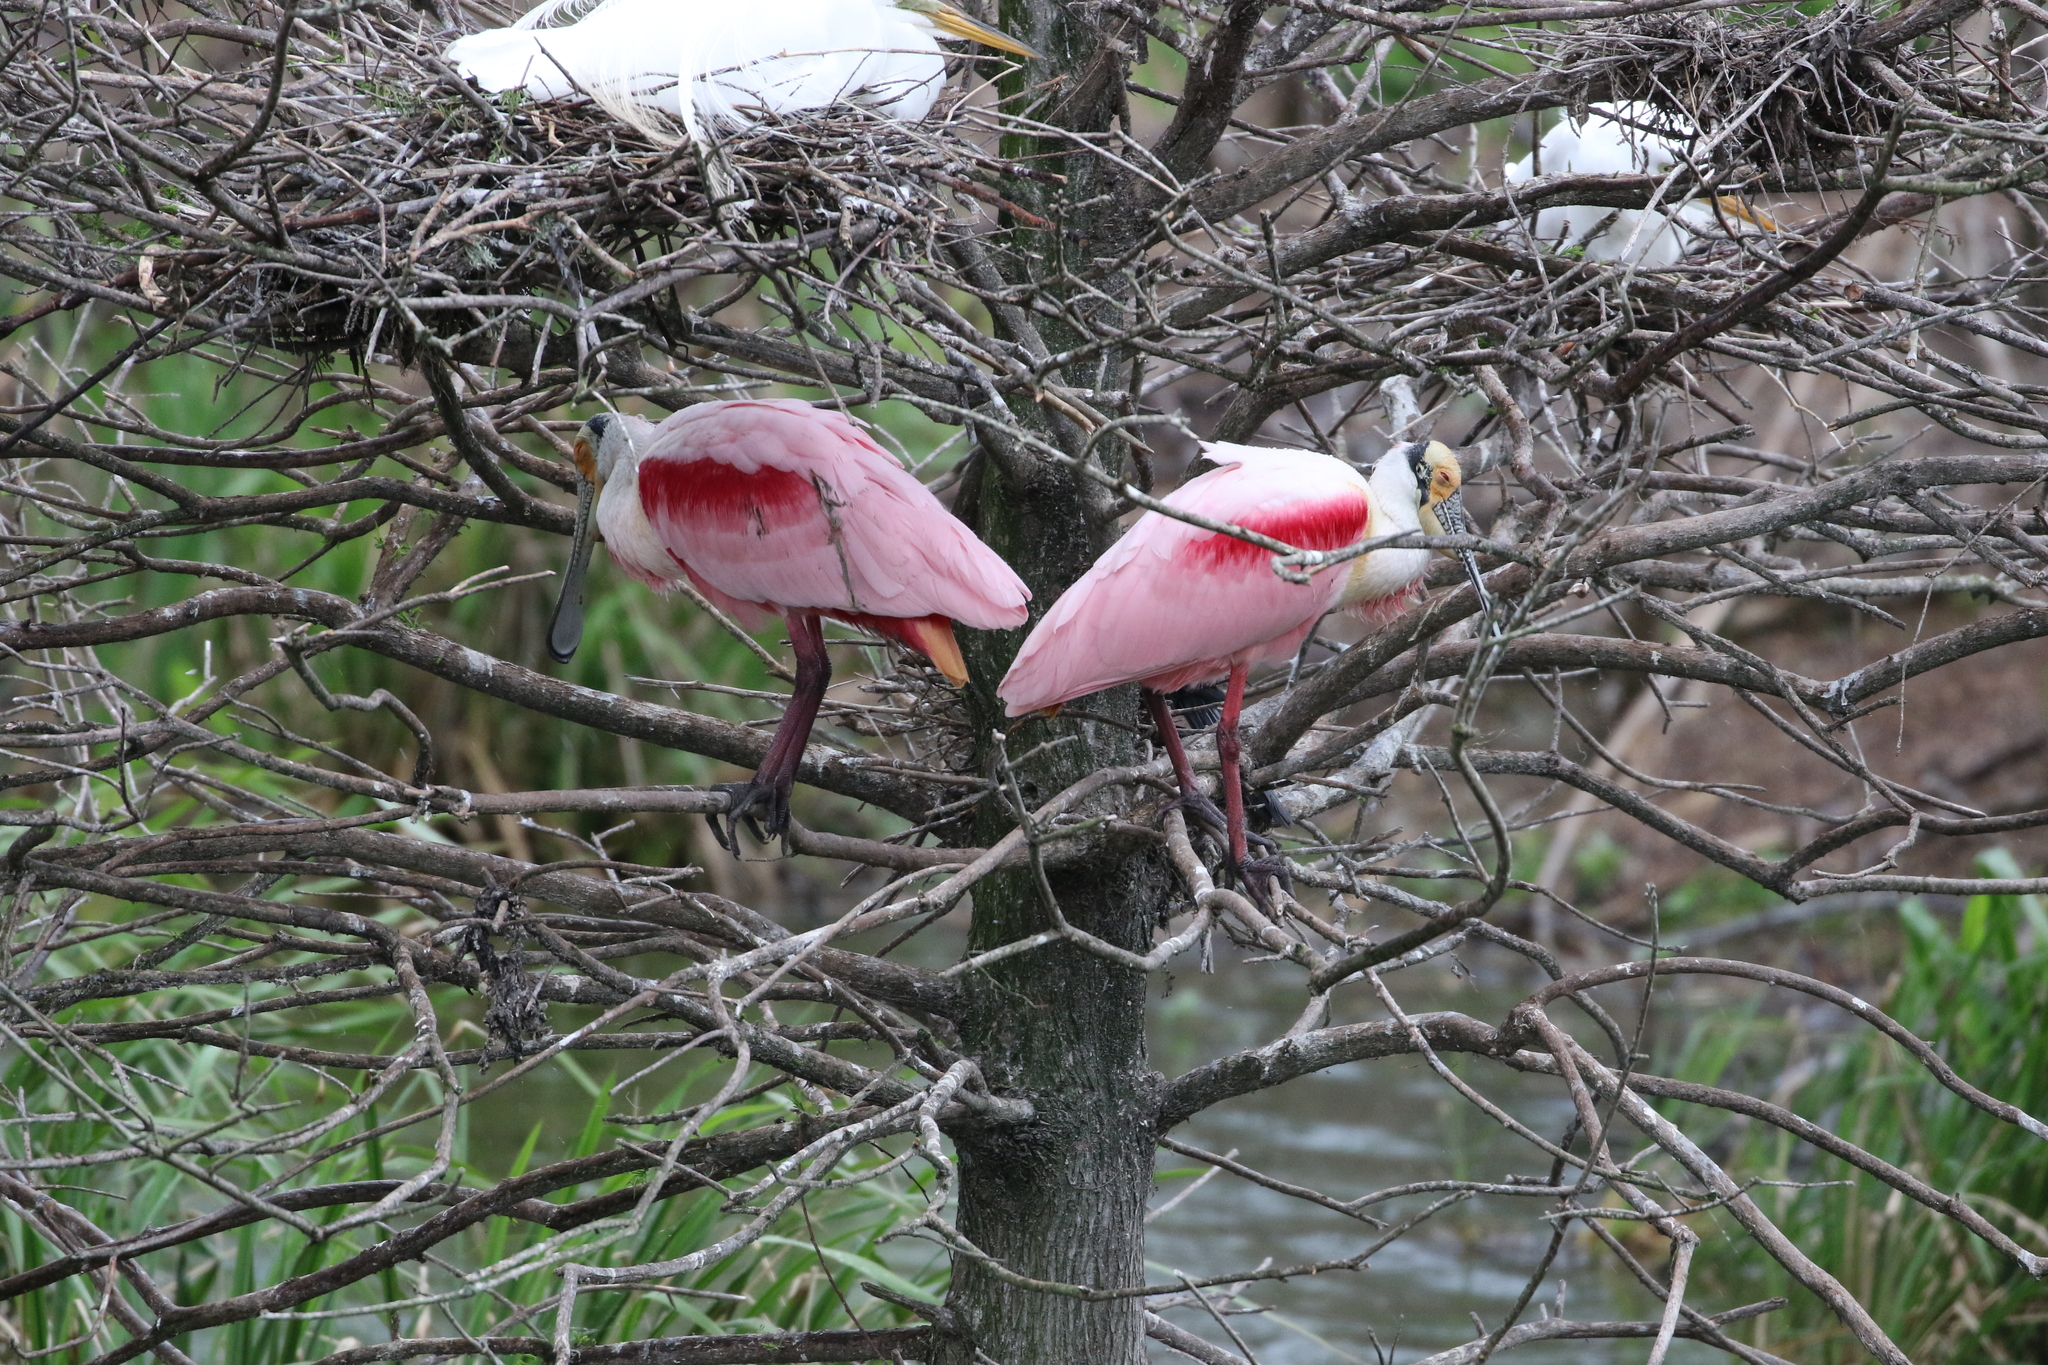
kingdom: Animalia
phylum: Chordata
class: Aves
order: Pelecaniformes
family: Threskiornithidae
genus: Platalea
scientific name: Platalea ajaja
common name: Roseate spoonbill
